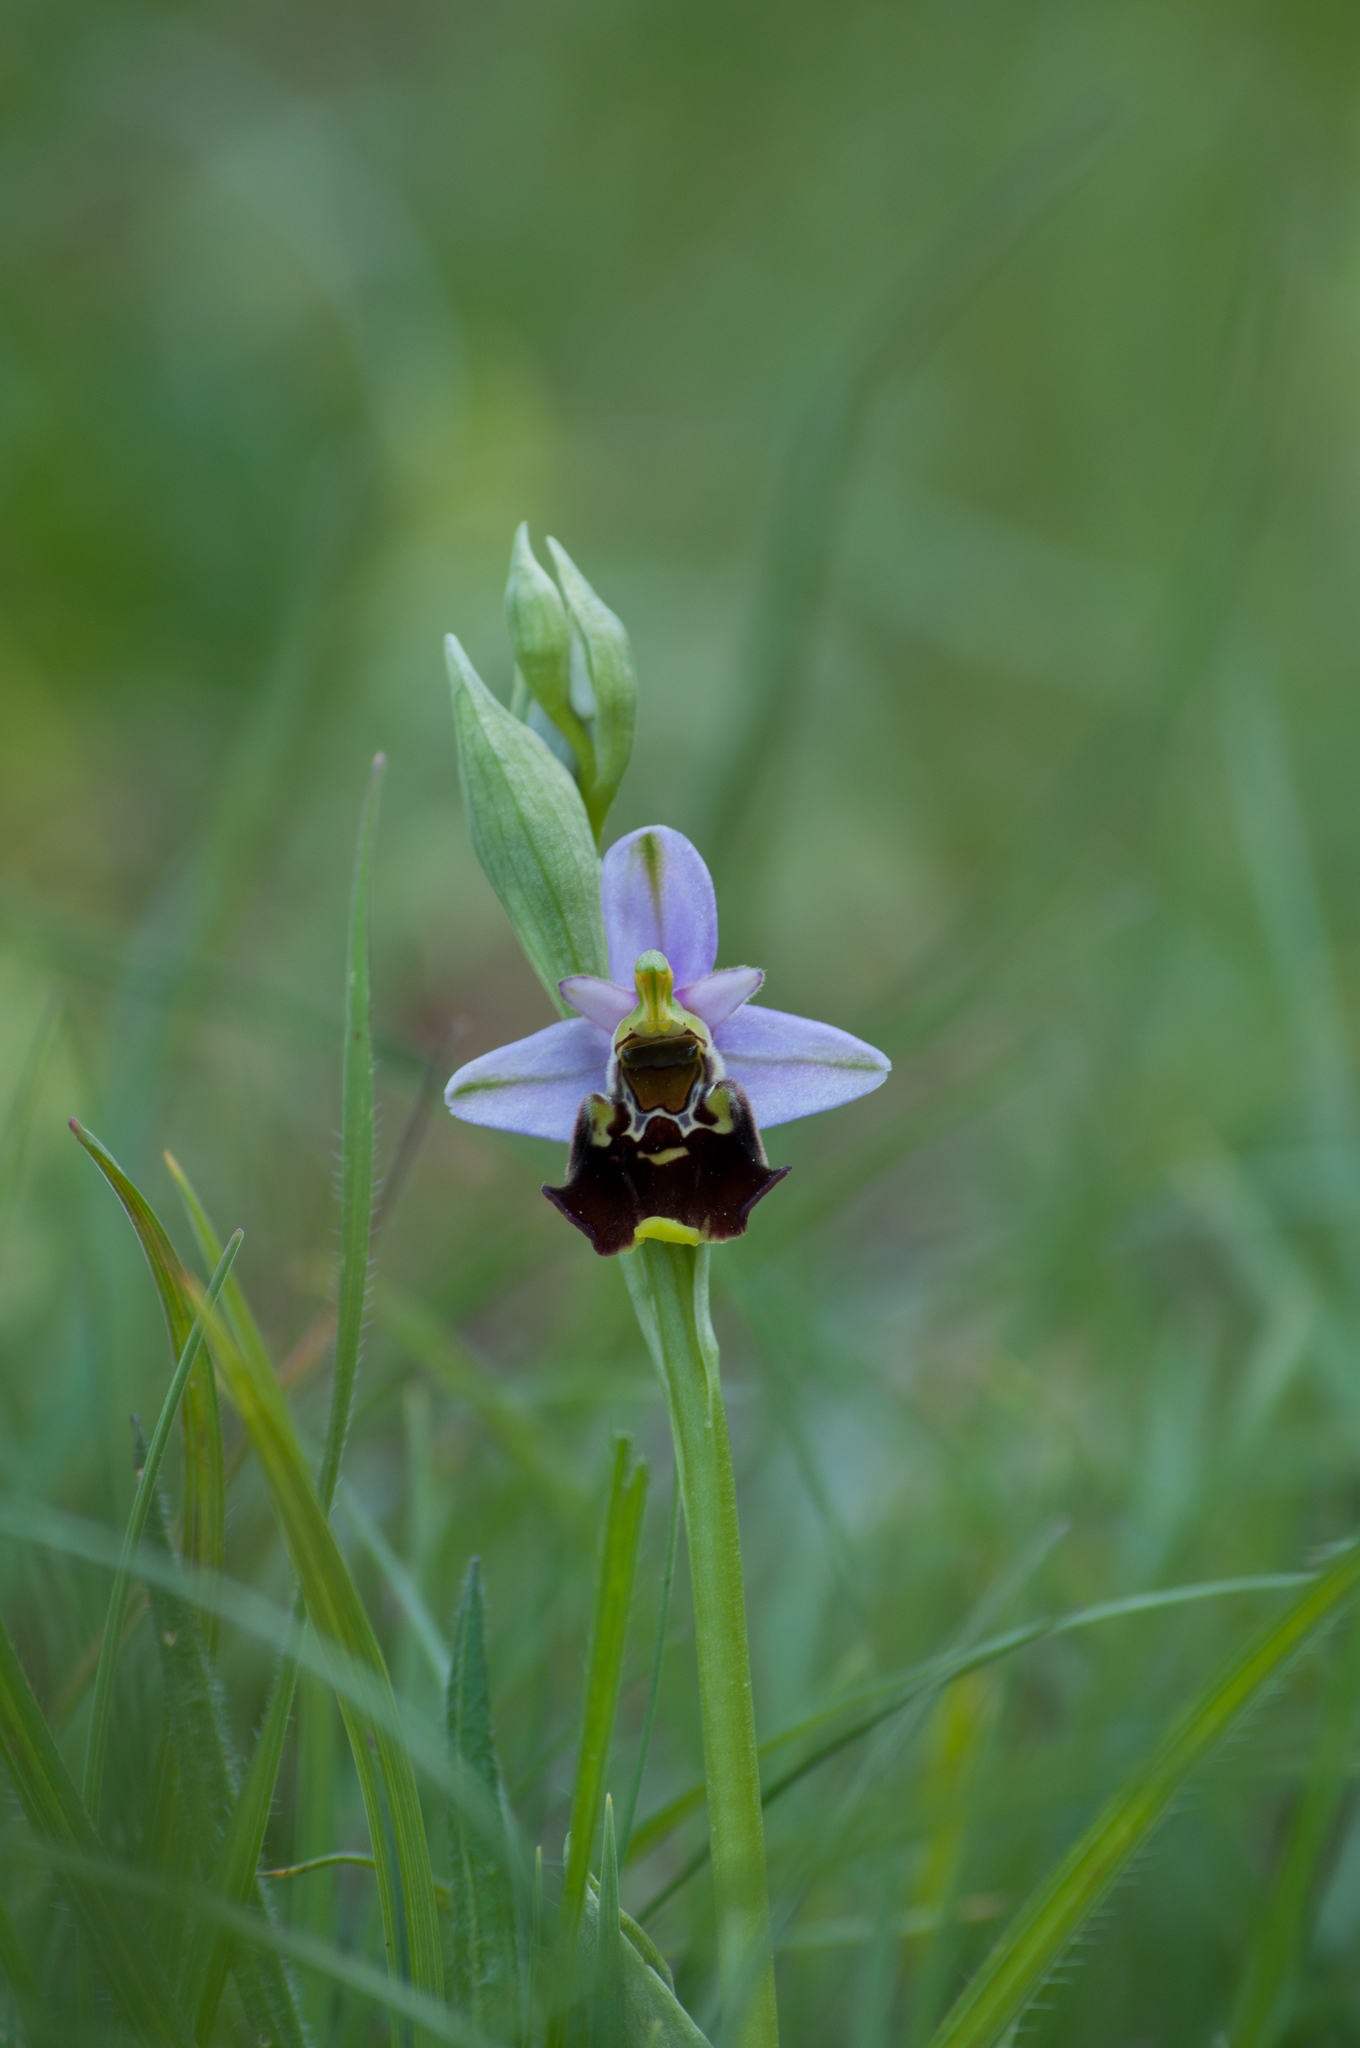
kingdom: Plantae
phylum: Tracheophyta
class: Liliopsida
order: Asparagales
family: Orchidaceae
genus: Ophrys
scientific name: Ophrys holosericea
